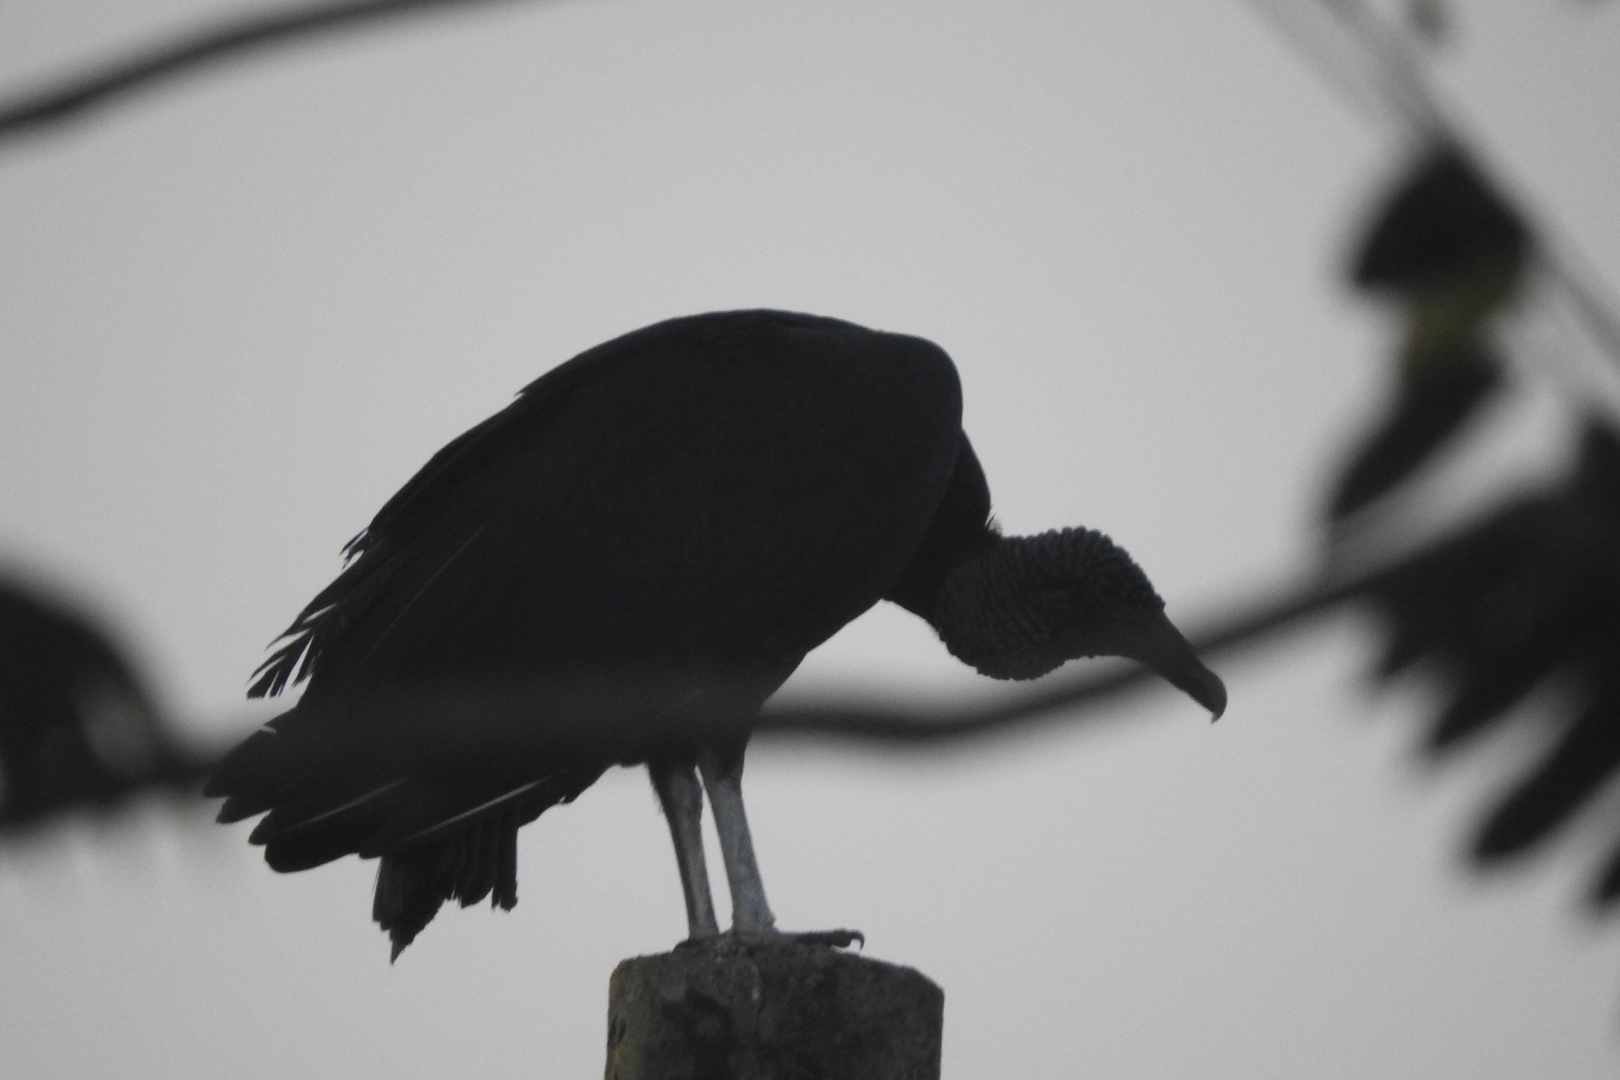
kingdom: Animalia
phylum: Chordata
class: Aves
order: Accipitriformes
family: Cathartidae
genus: Coragyps
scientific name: Coragyps atratus
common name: Black vulture
